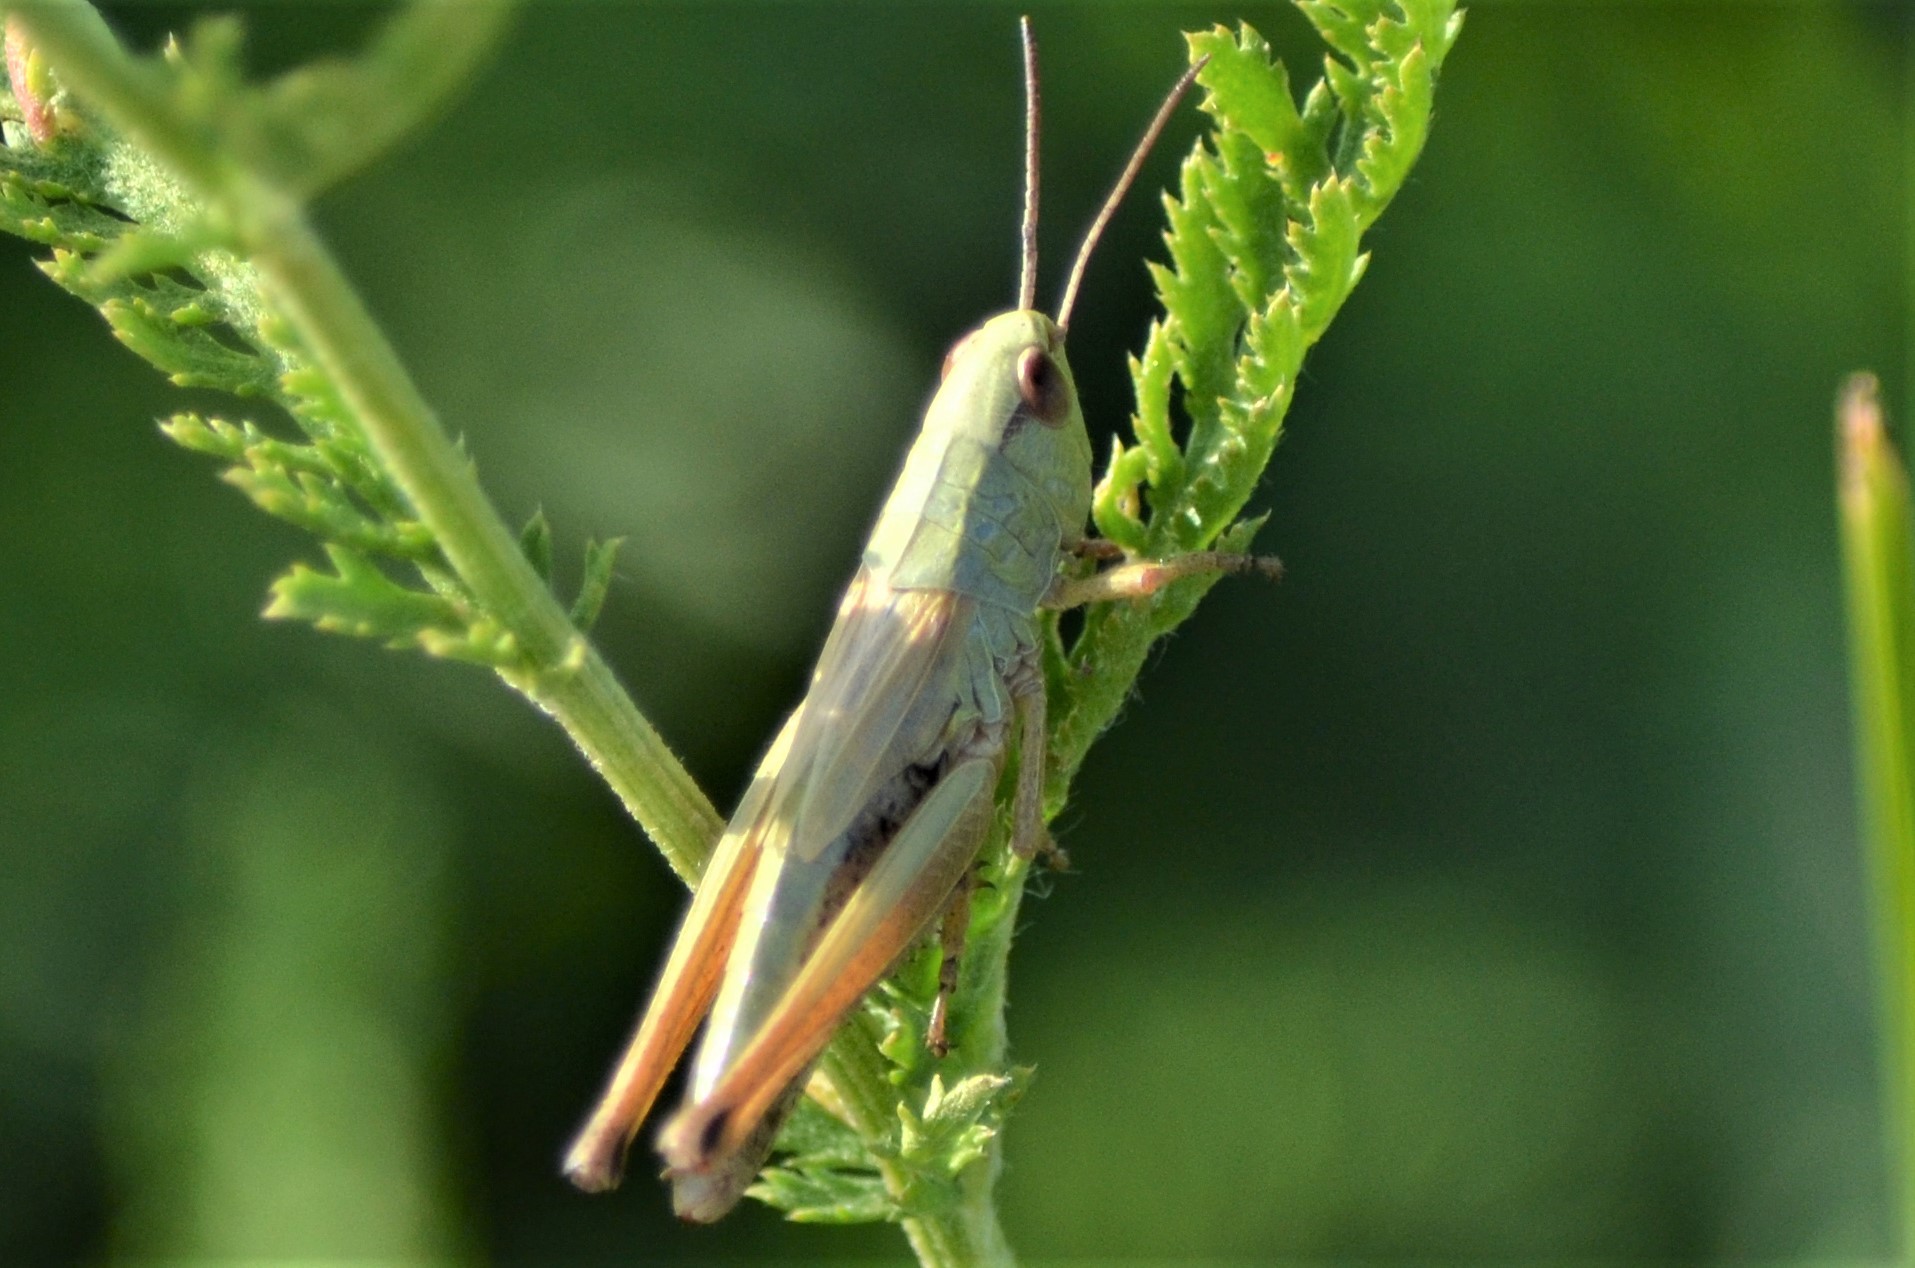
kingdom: Animalia
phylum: Arthropoda
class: Insecta
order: Orthoptera
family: Acrididae
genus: Pseudochorthippus
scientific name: Pseudochorthippus parallelus
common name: Meadow grasshopper
